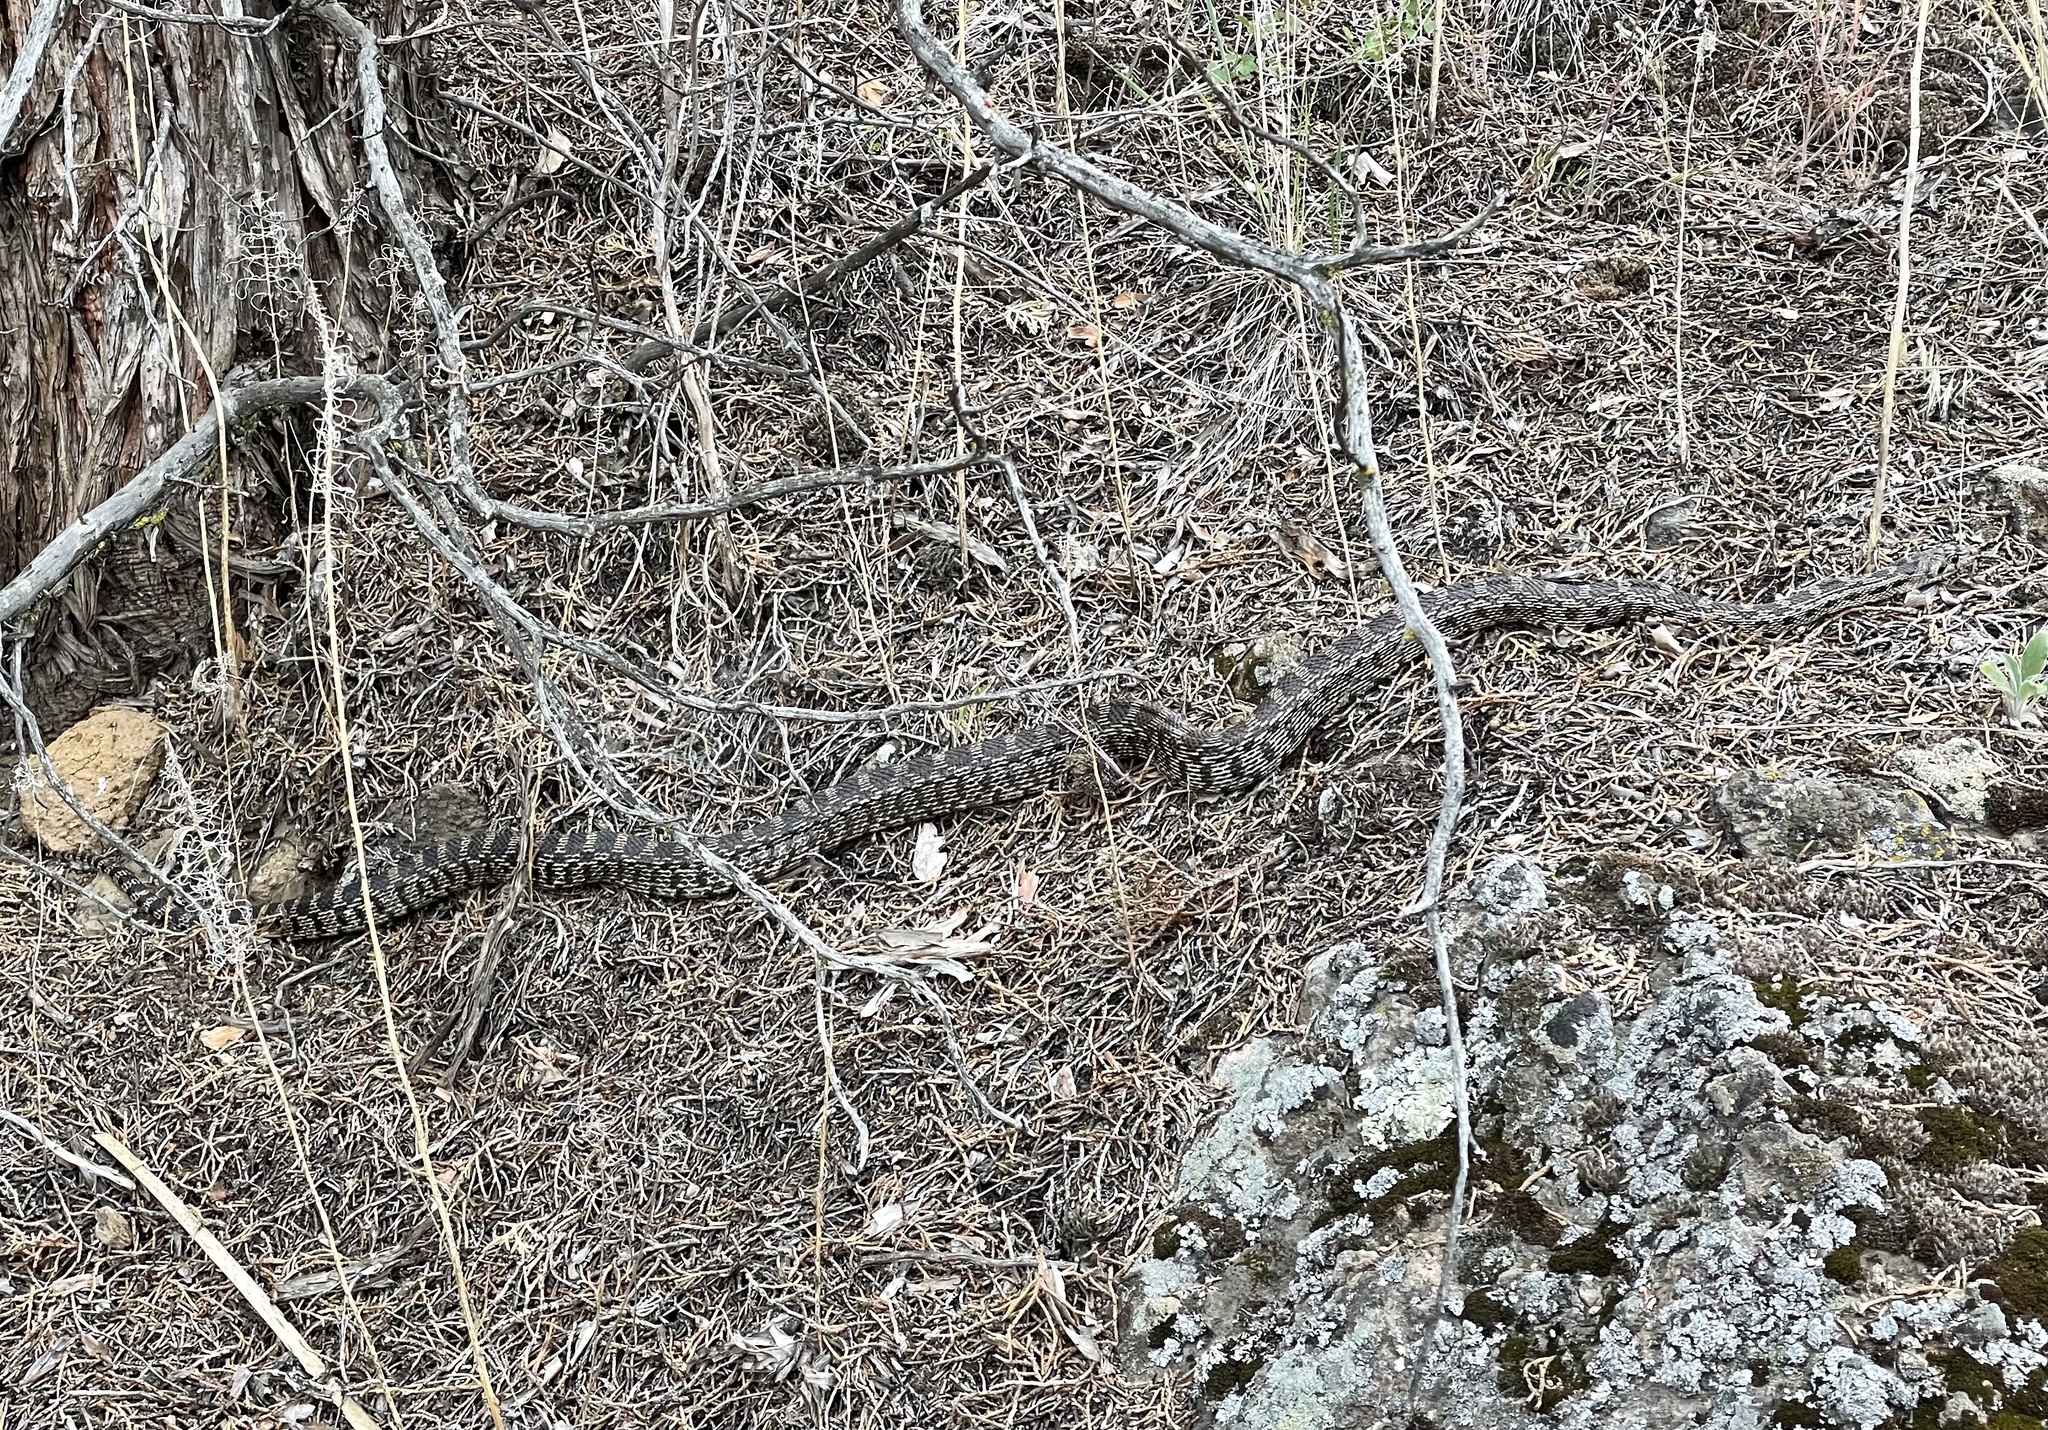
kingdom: Animalia
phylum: Chordata
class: Squamata
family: Colubridae
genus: Pituophis
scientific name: Pituophis catenifer
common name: Gopher snake
